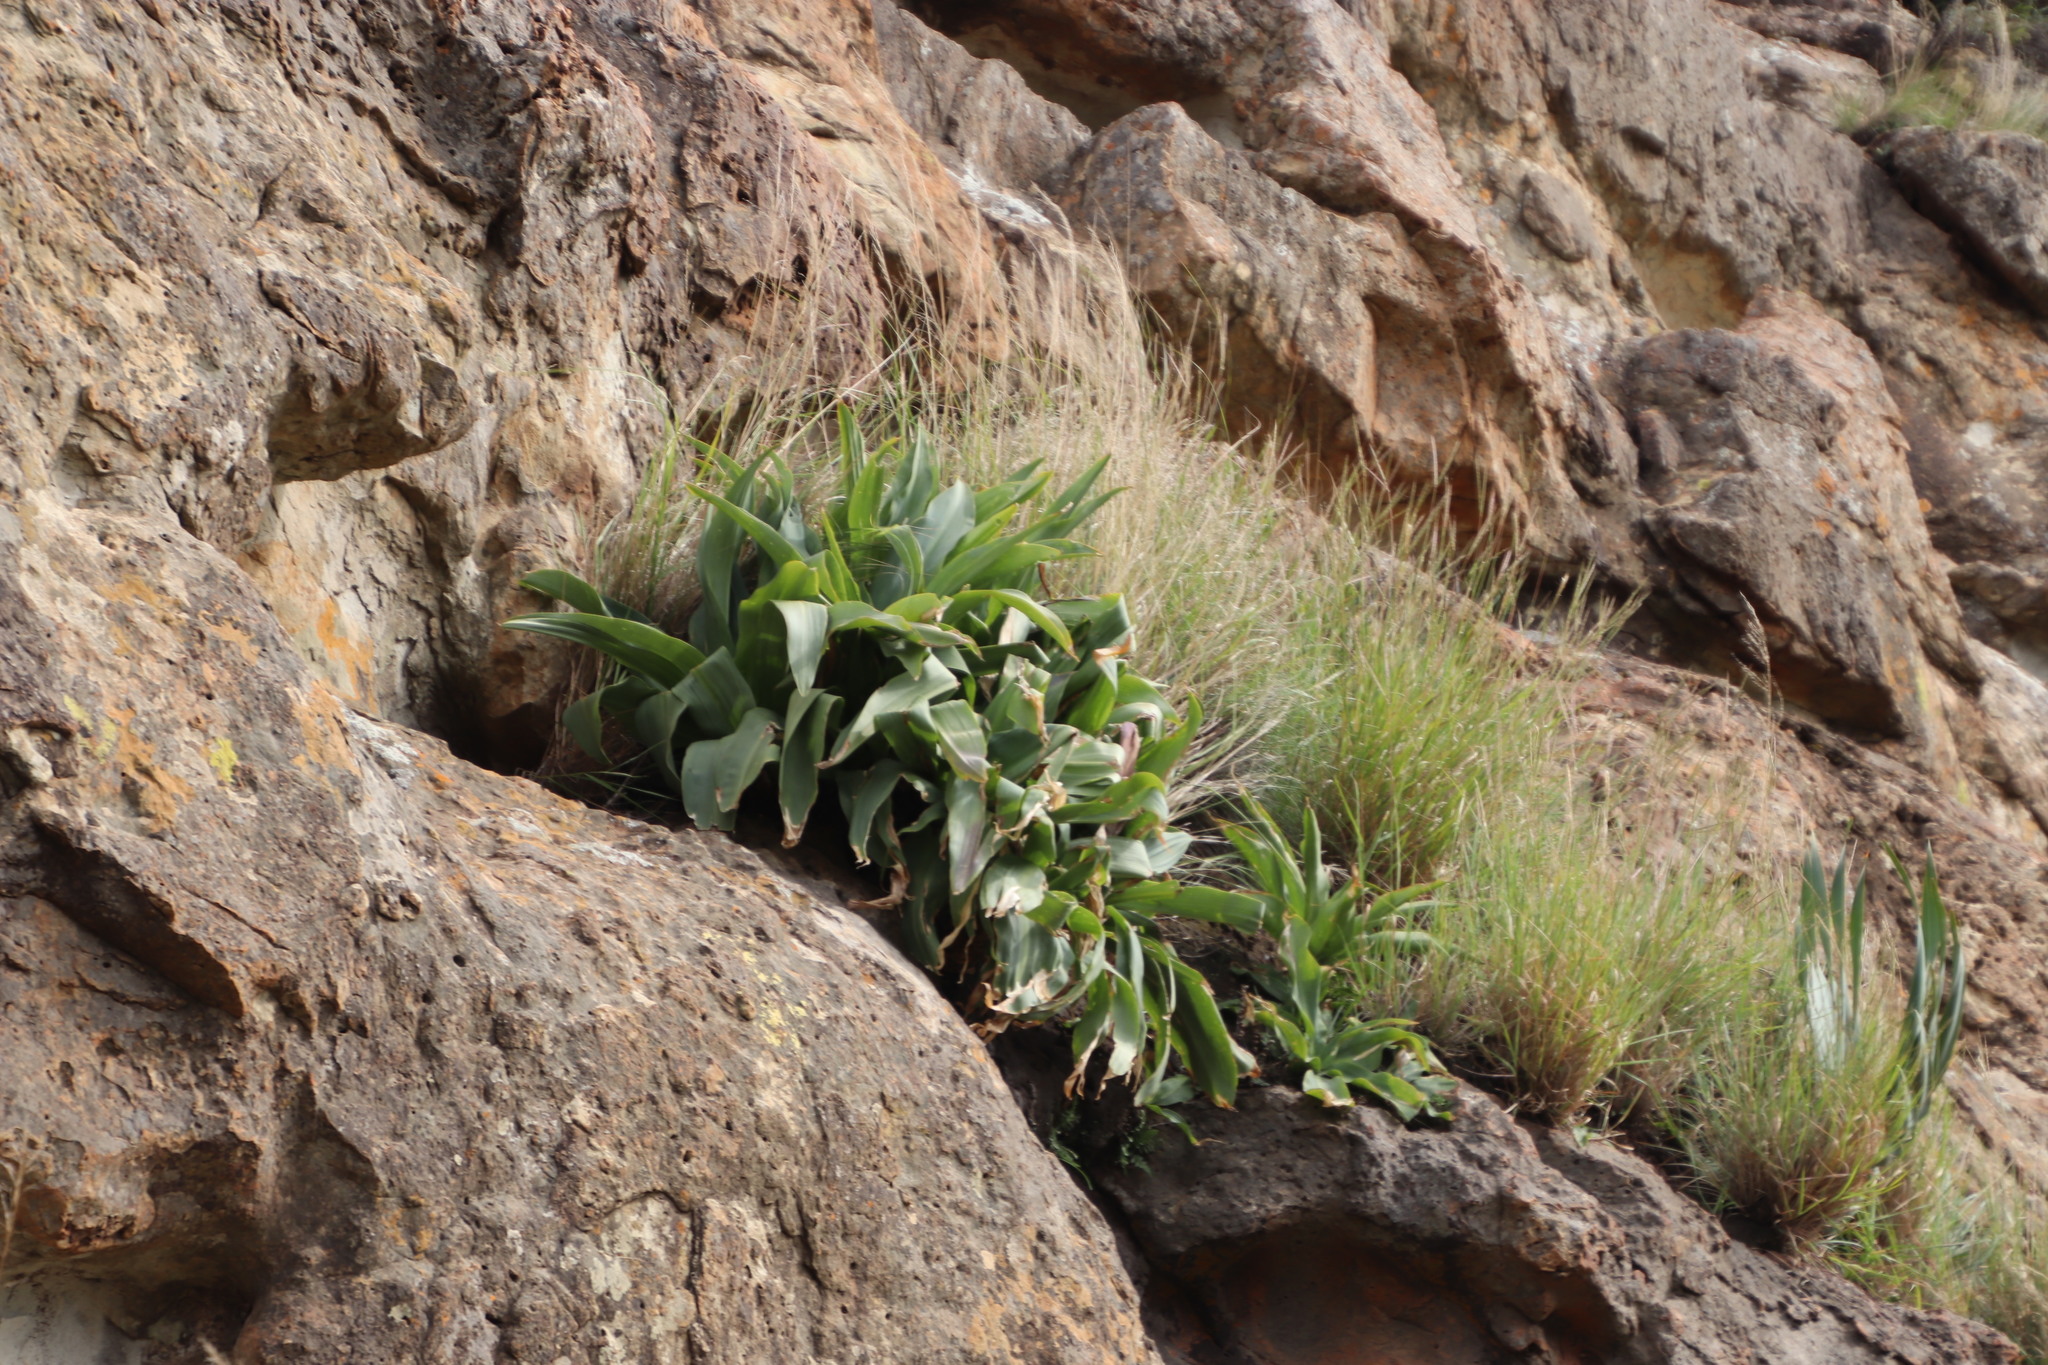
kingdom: Plantae
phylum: Tracheophyta
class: Liliopsida
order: Asparagales
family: Asparagaceae
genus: Merwilla
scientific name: Merwilla plumbea
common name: Blue-squill
